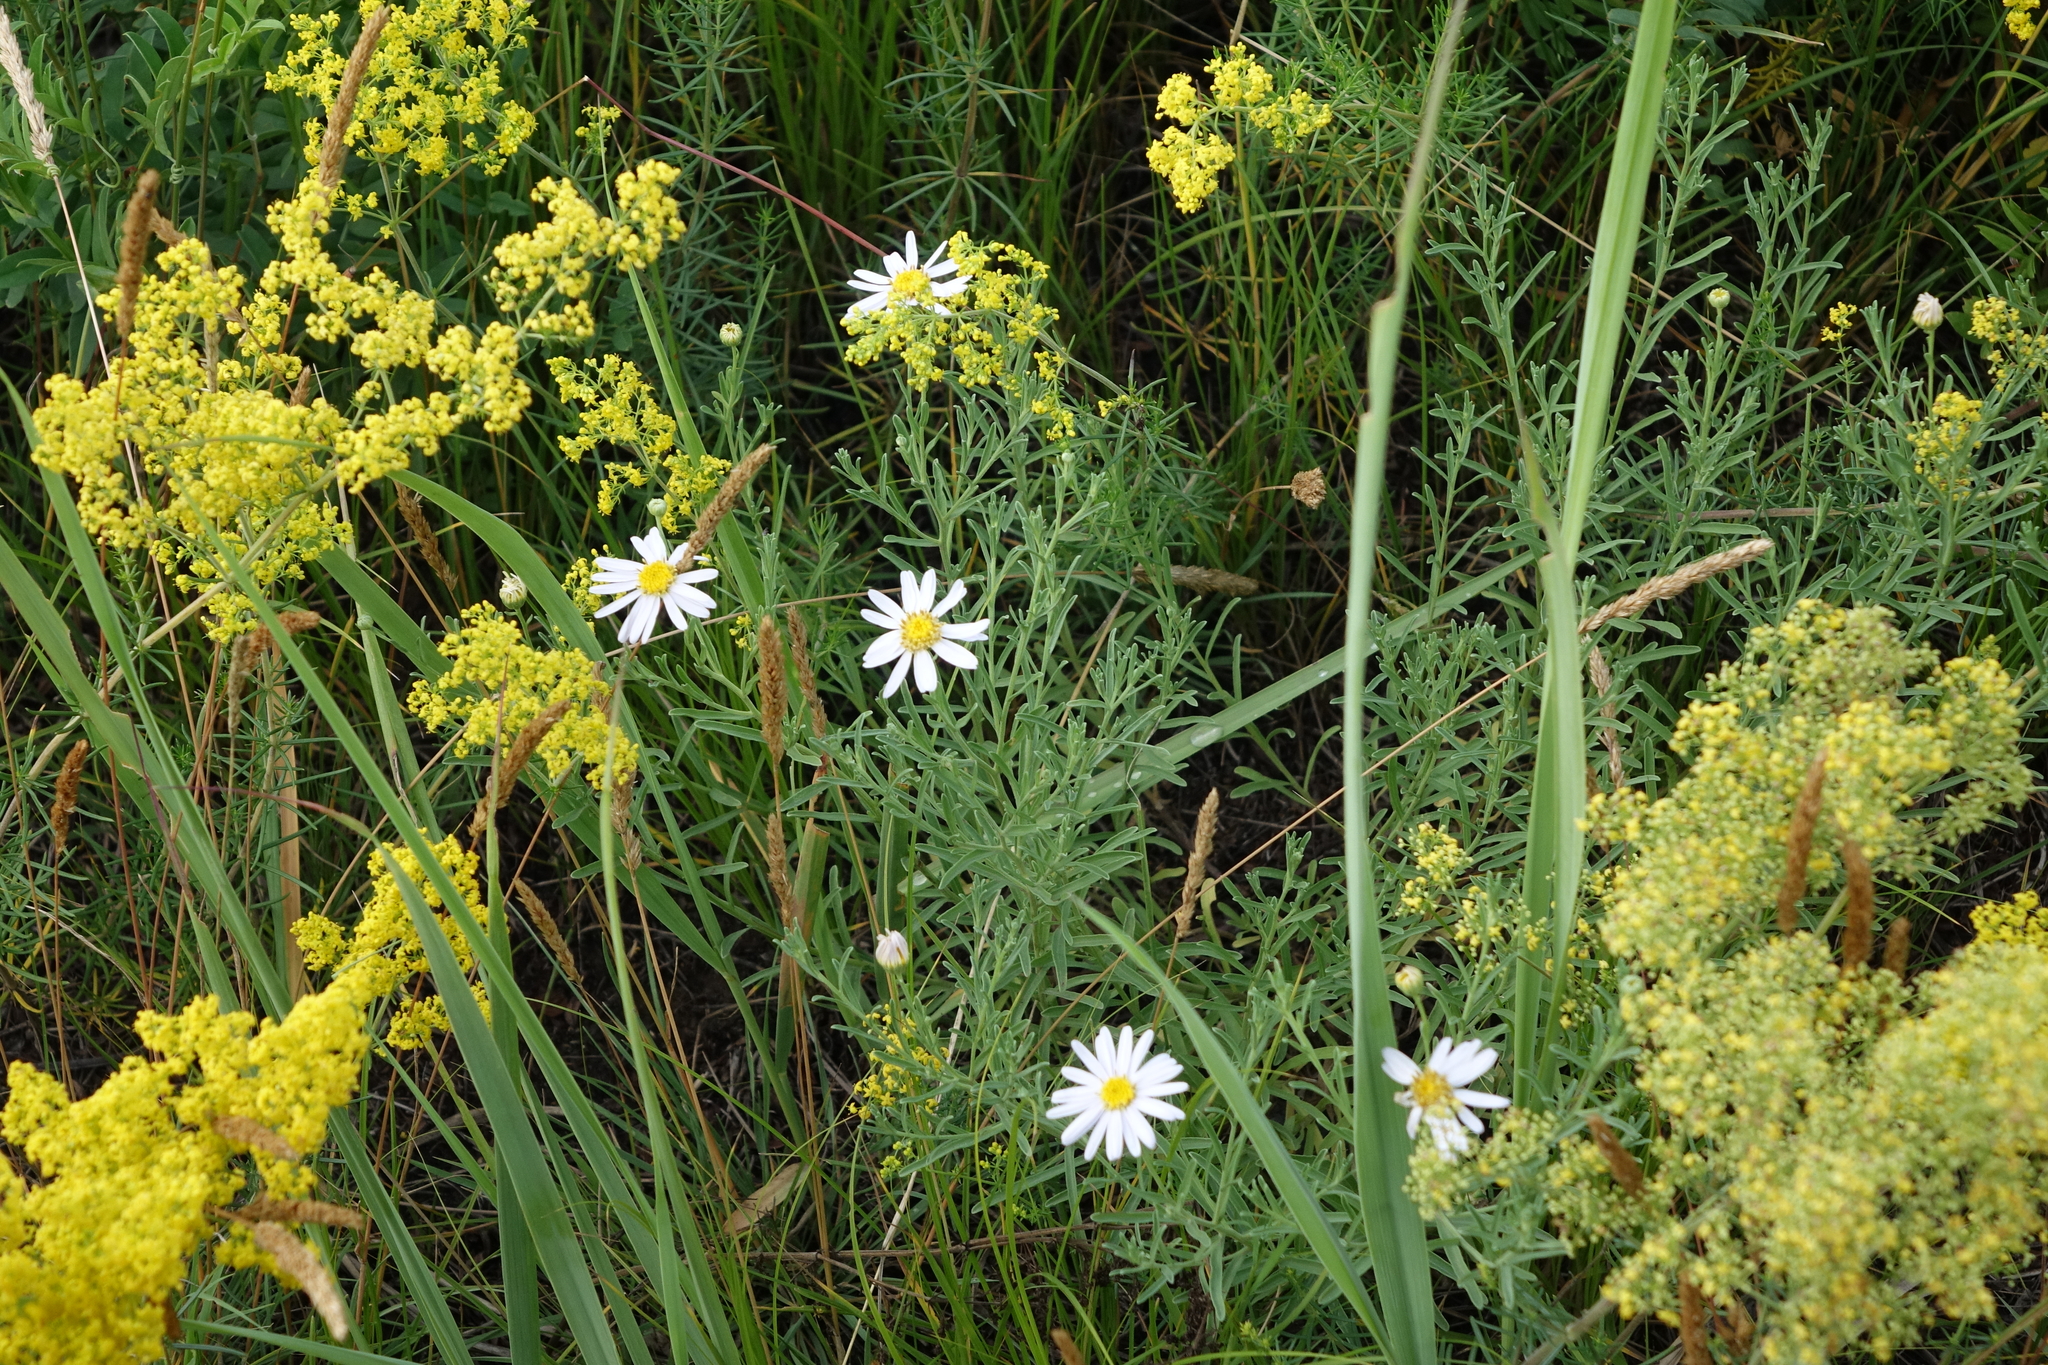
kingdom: Plantae
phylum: Tracheophyta
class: Magnoliopsida
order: Gentianales
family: Rubiaceae
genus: Galium
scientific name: Galium verum
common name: Lady's bedstraw
